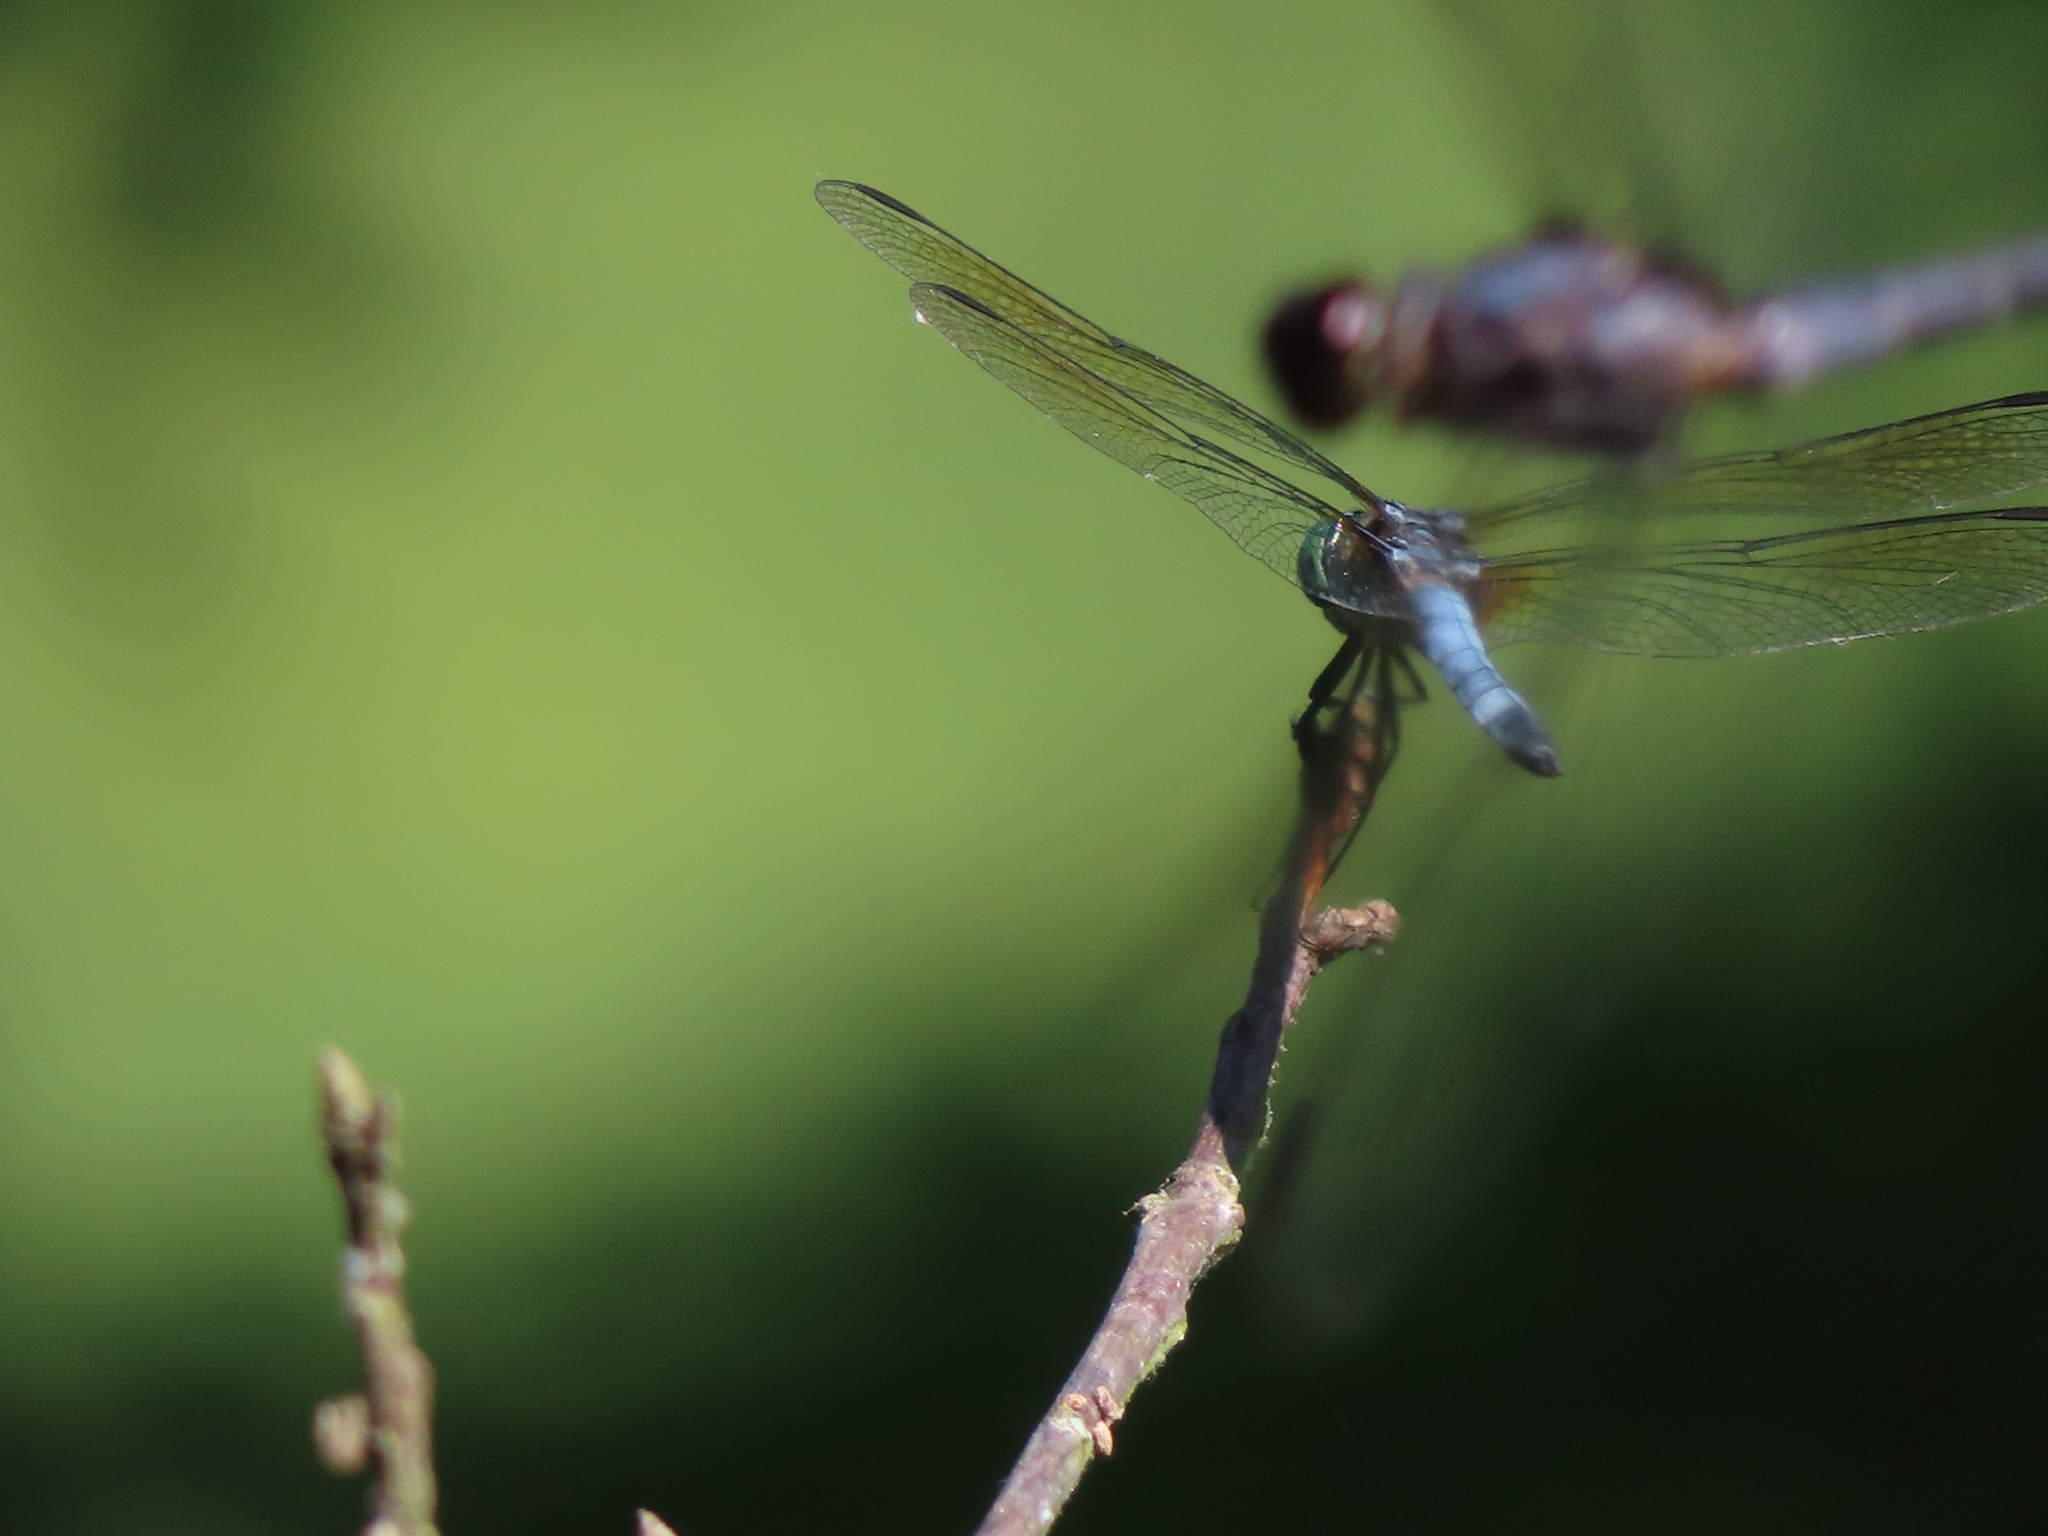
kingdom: Animalia
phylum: Arthropoda
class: Insecta
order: Odonata
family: Libellulidae
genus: Pachydiplax
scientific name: Pachydiplax longipennis
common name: Blue dasher
